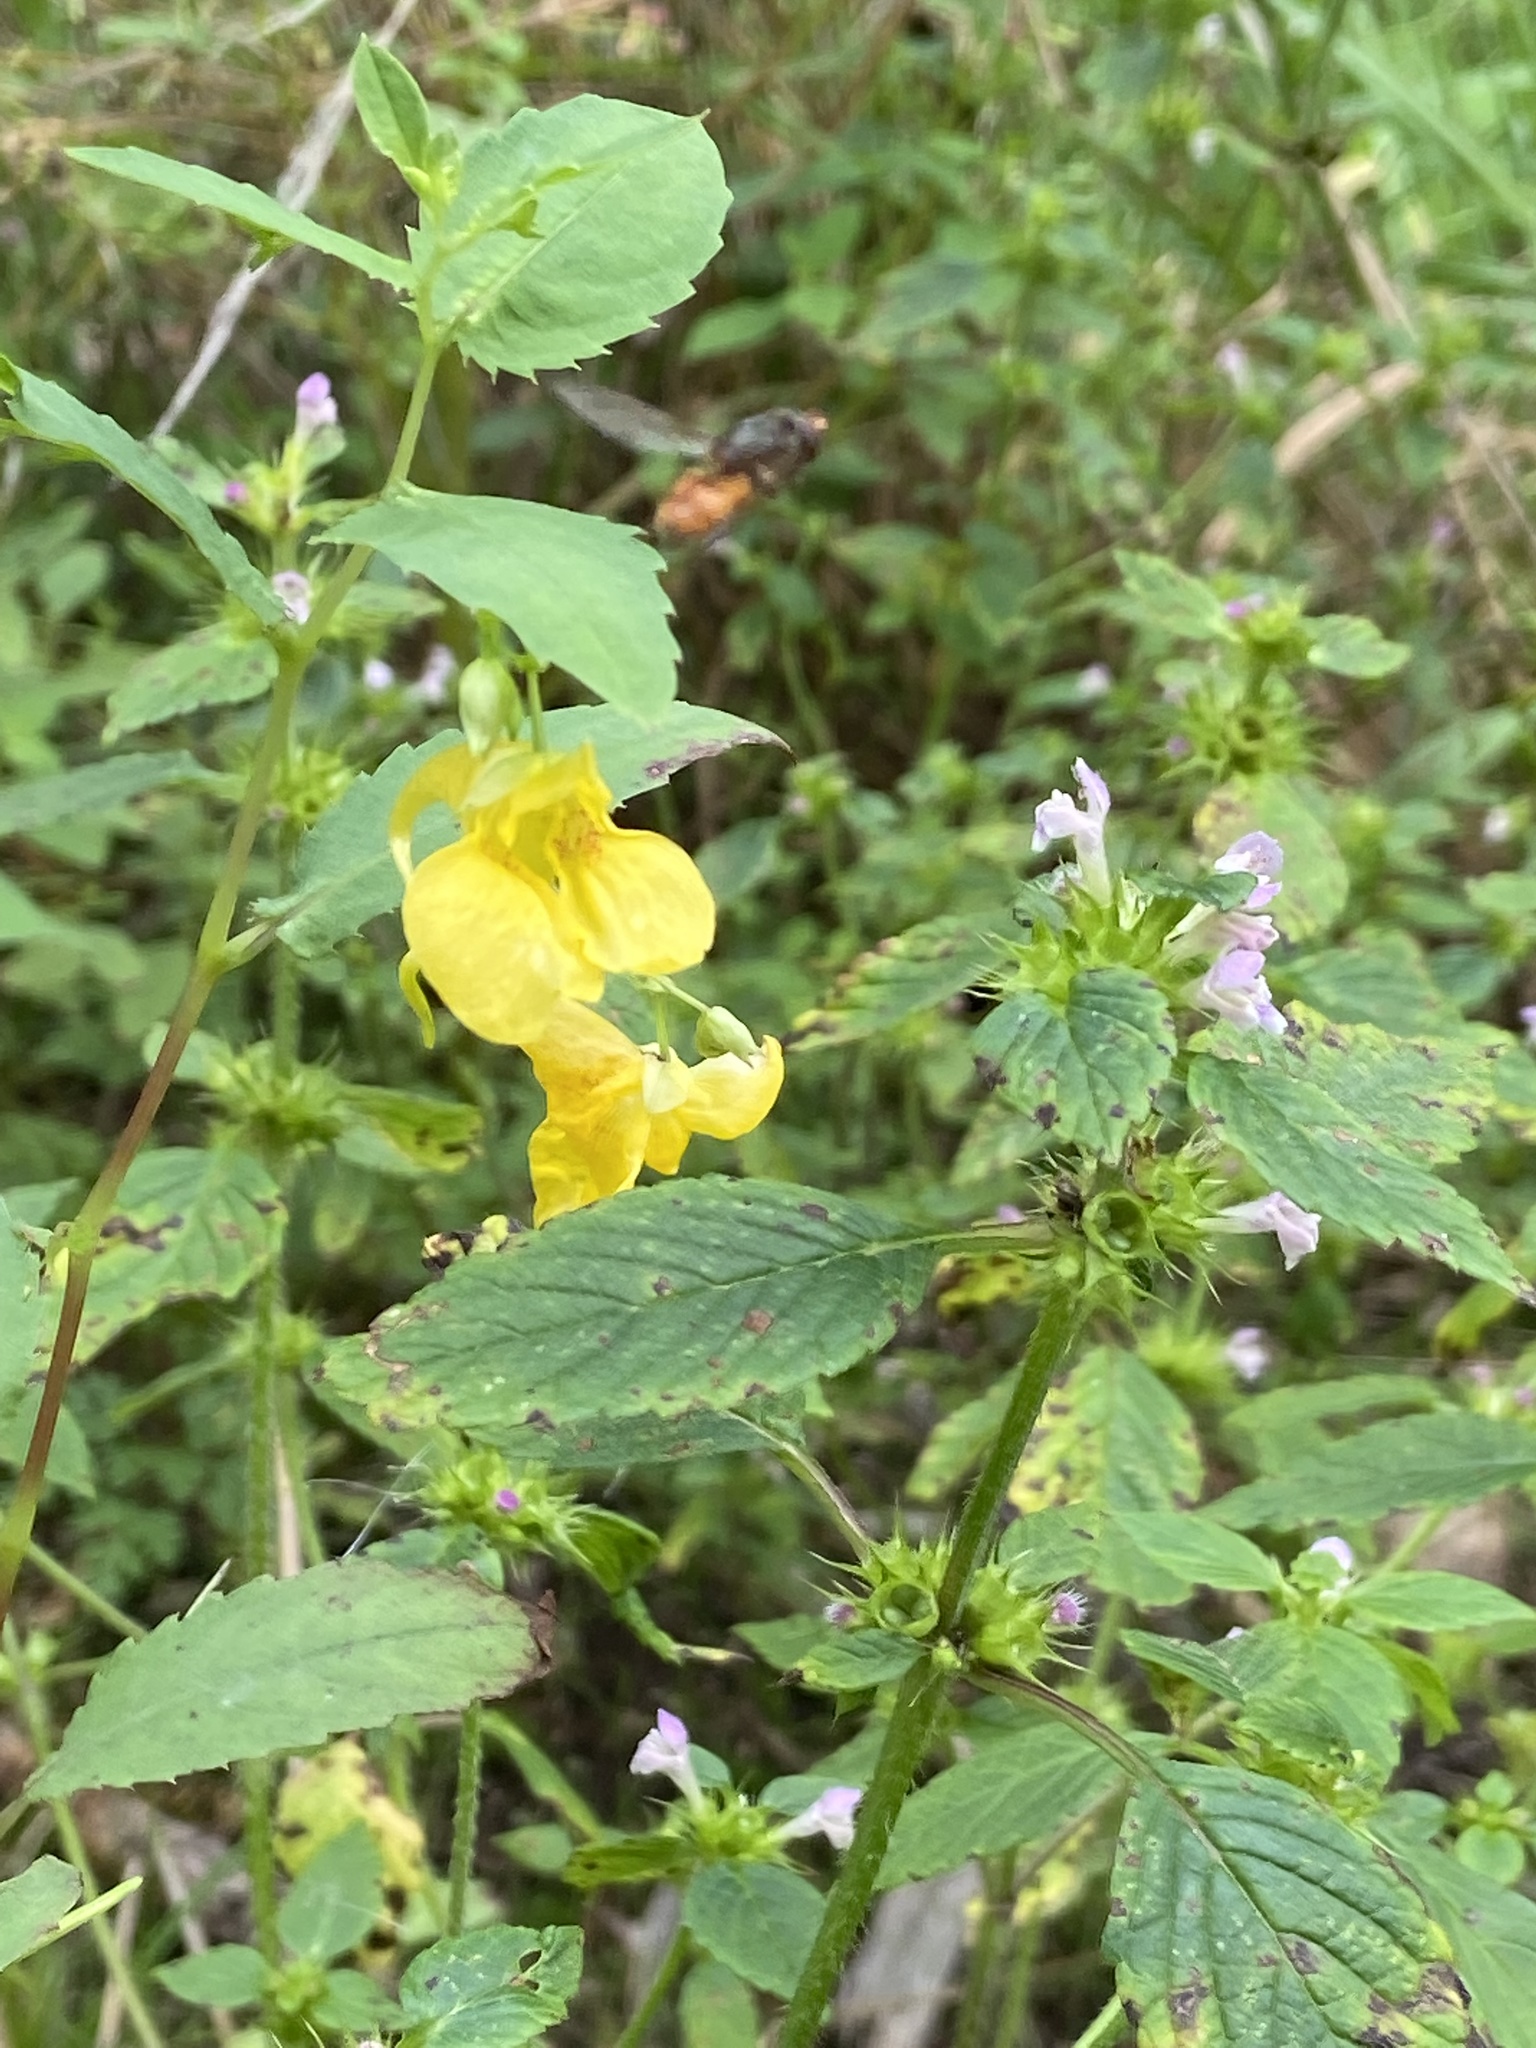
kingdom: Plantae
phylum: Tracheophyta
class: Magnoliopsida
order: Ericales
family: Balsaminaceae
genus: Impatiens
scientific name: Impatiens noli-tangere
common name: Touch-me-not balsam
